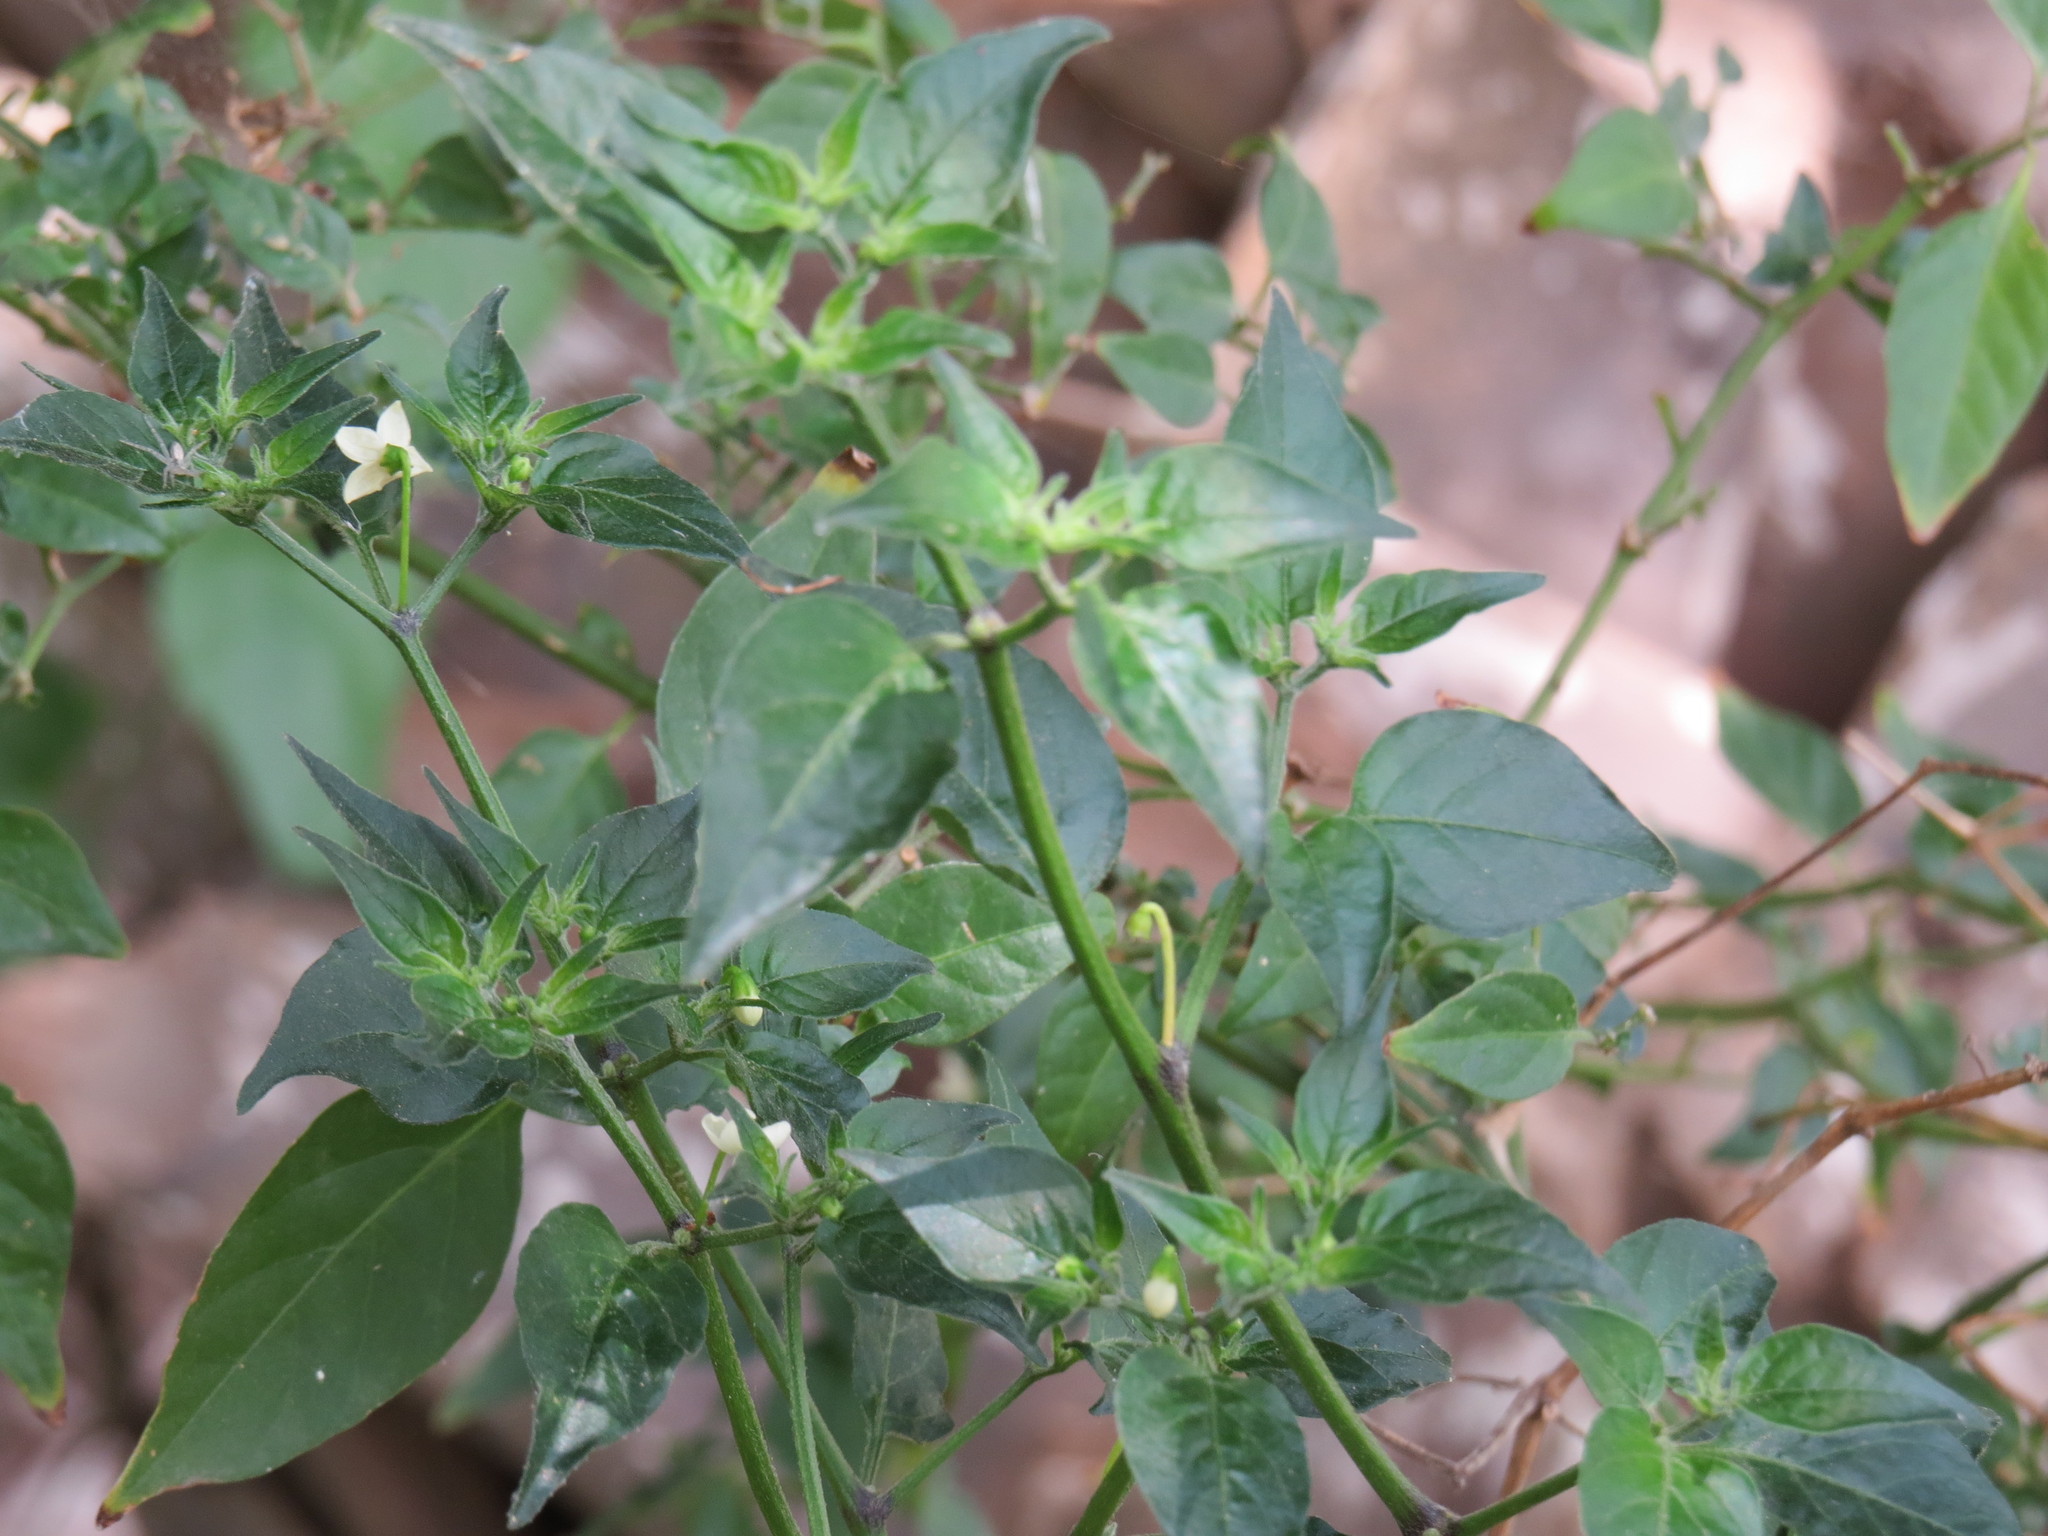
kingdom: Plantae
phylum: Tracheophyta
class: Magnoliopsida
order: Solanales
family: Solanaceae
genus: Capsicum
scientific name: Capsicum annuum
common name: Sweet pepper
